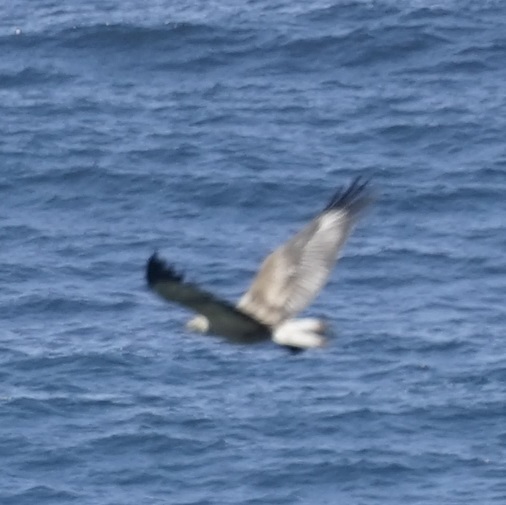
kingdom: Animalia
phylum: Chordata
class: Aves
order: Accipitriformes
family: Accipitridae
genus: Haliaeetus
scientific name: Haliaeetus leucogaster
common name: White-bellied sea eagle
